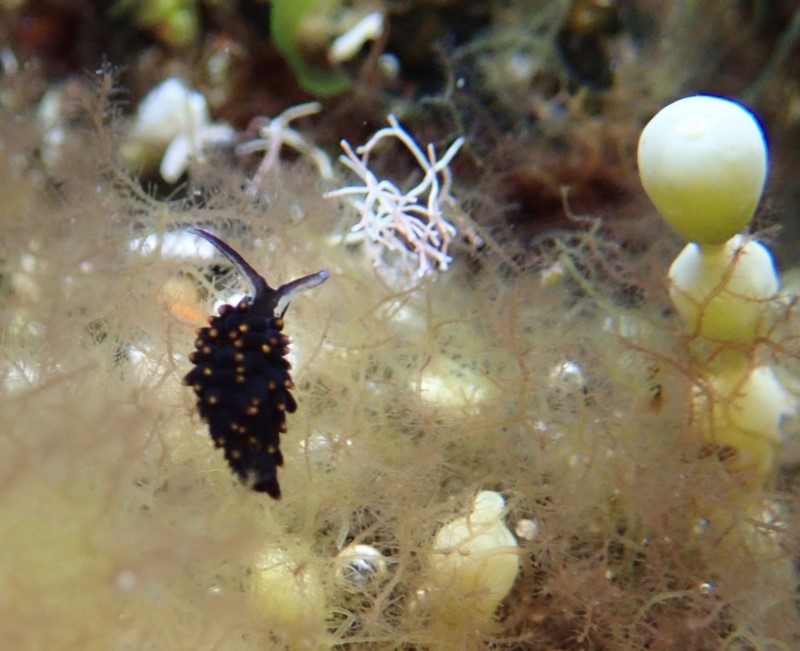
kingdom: Animalia
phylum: Mollusca
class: Gastropoda
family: Limapontiidae
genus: Ercolania
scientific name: Ercolania boodleae
